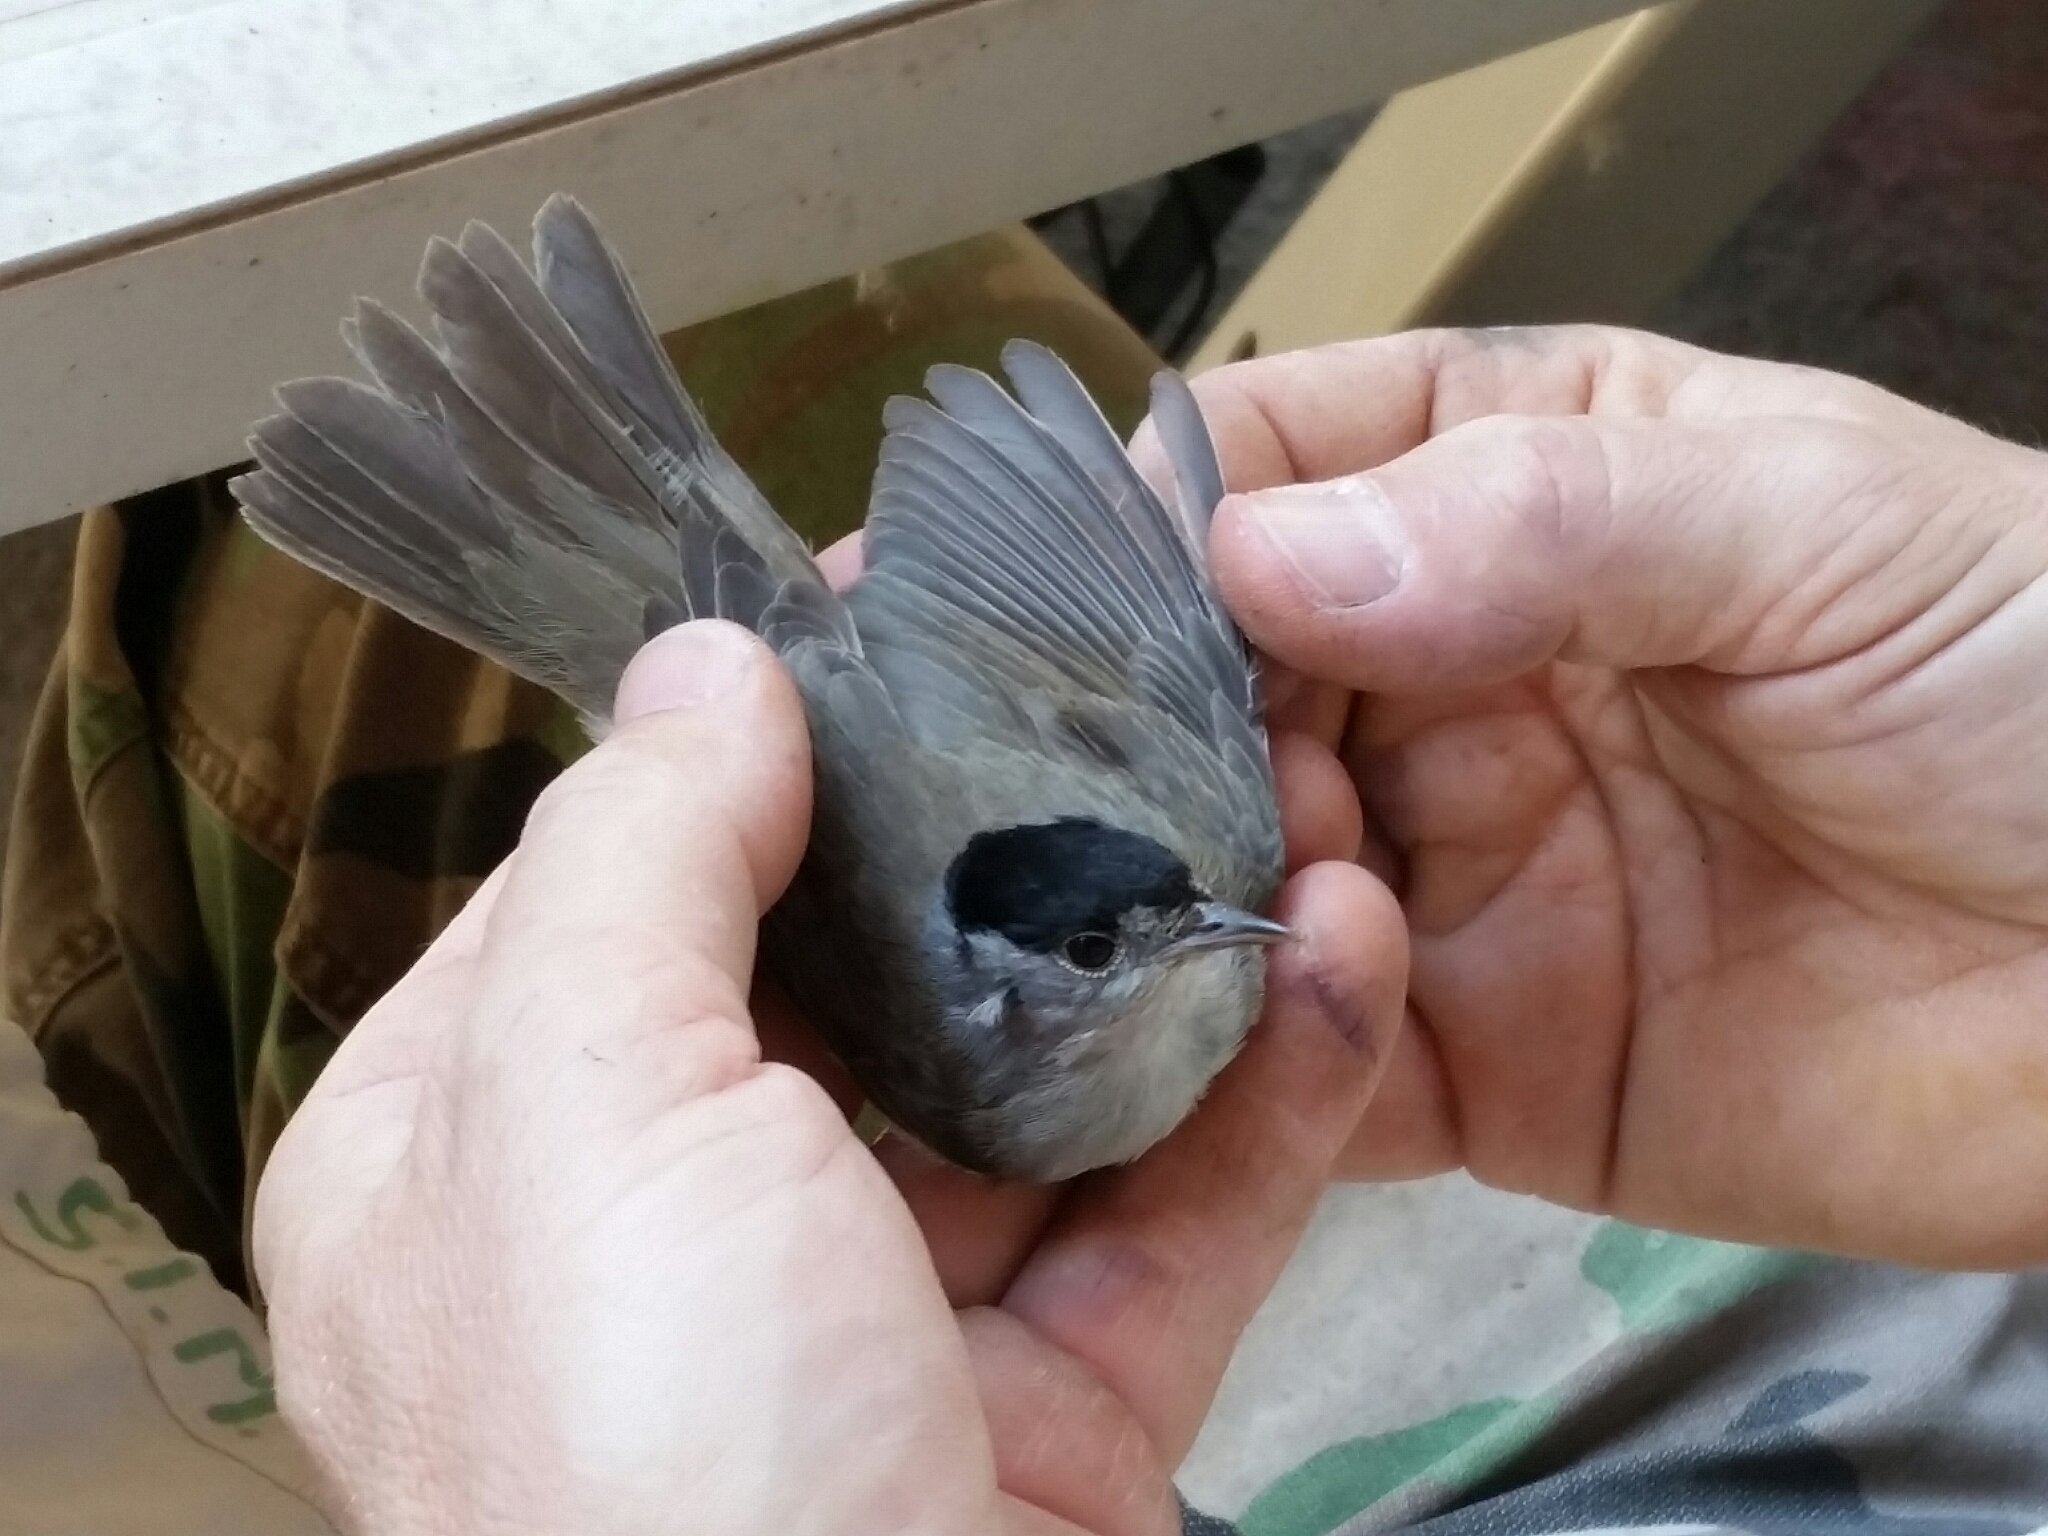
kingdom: Animalia
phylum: Chordata
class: Aves
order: Passeriformes
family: Sylviidae
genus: Sylvia
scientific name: Sylvia atricapilla
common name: Eurasian blackcap
